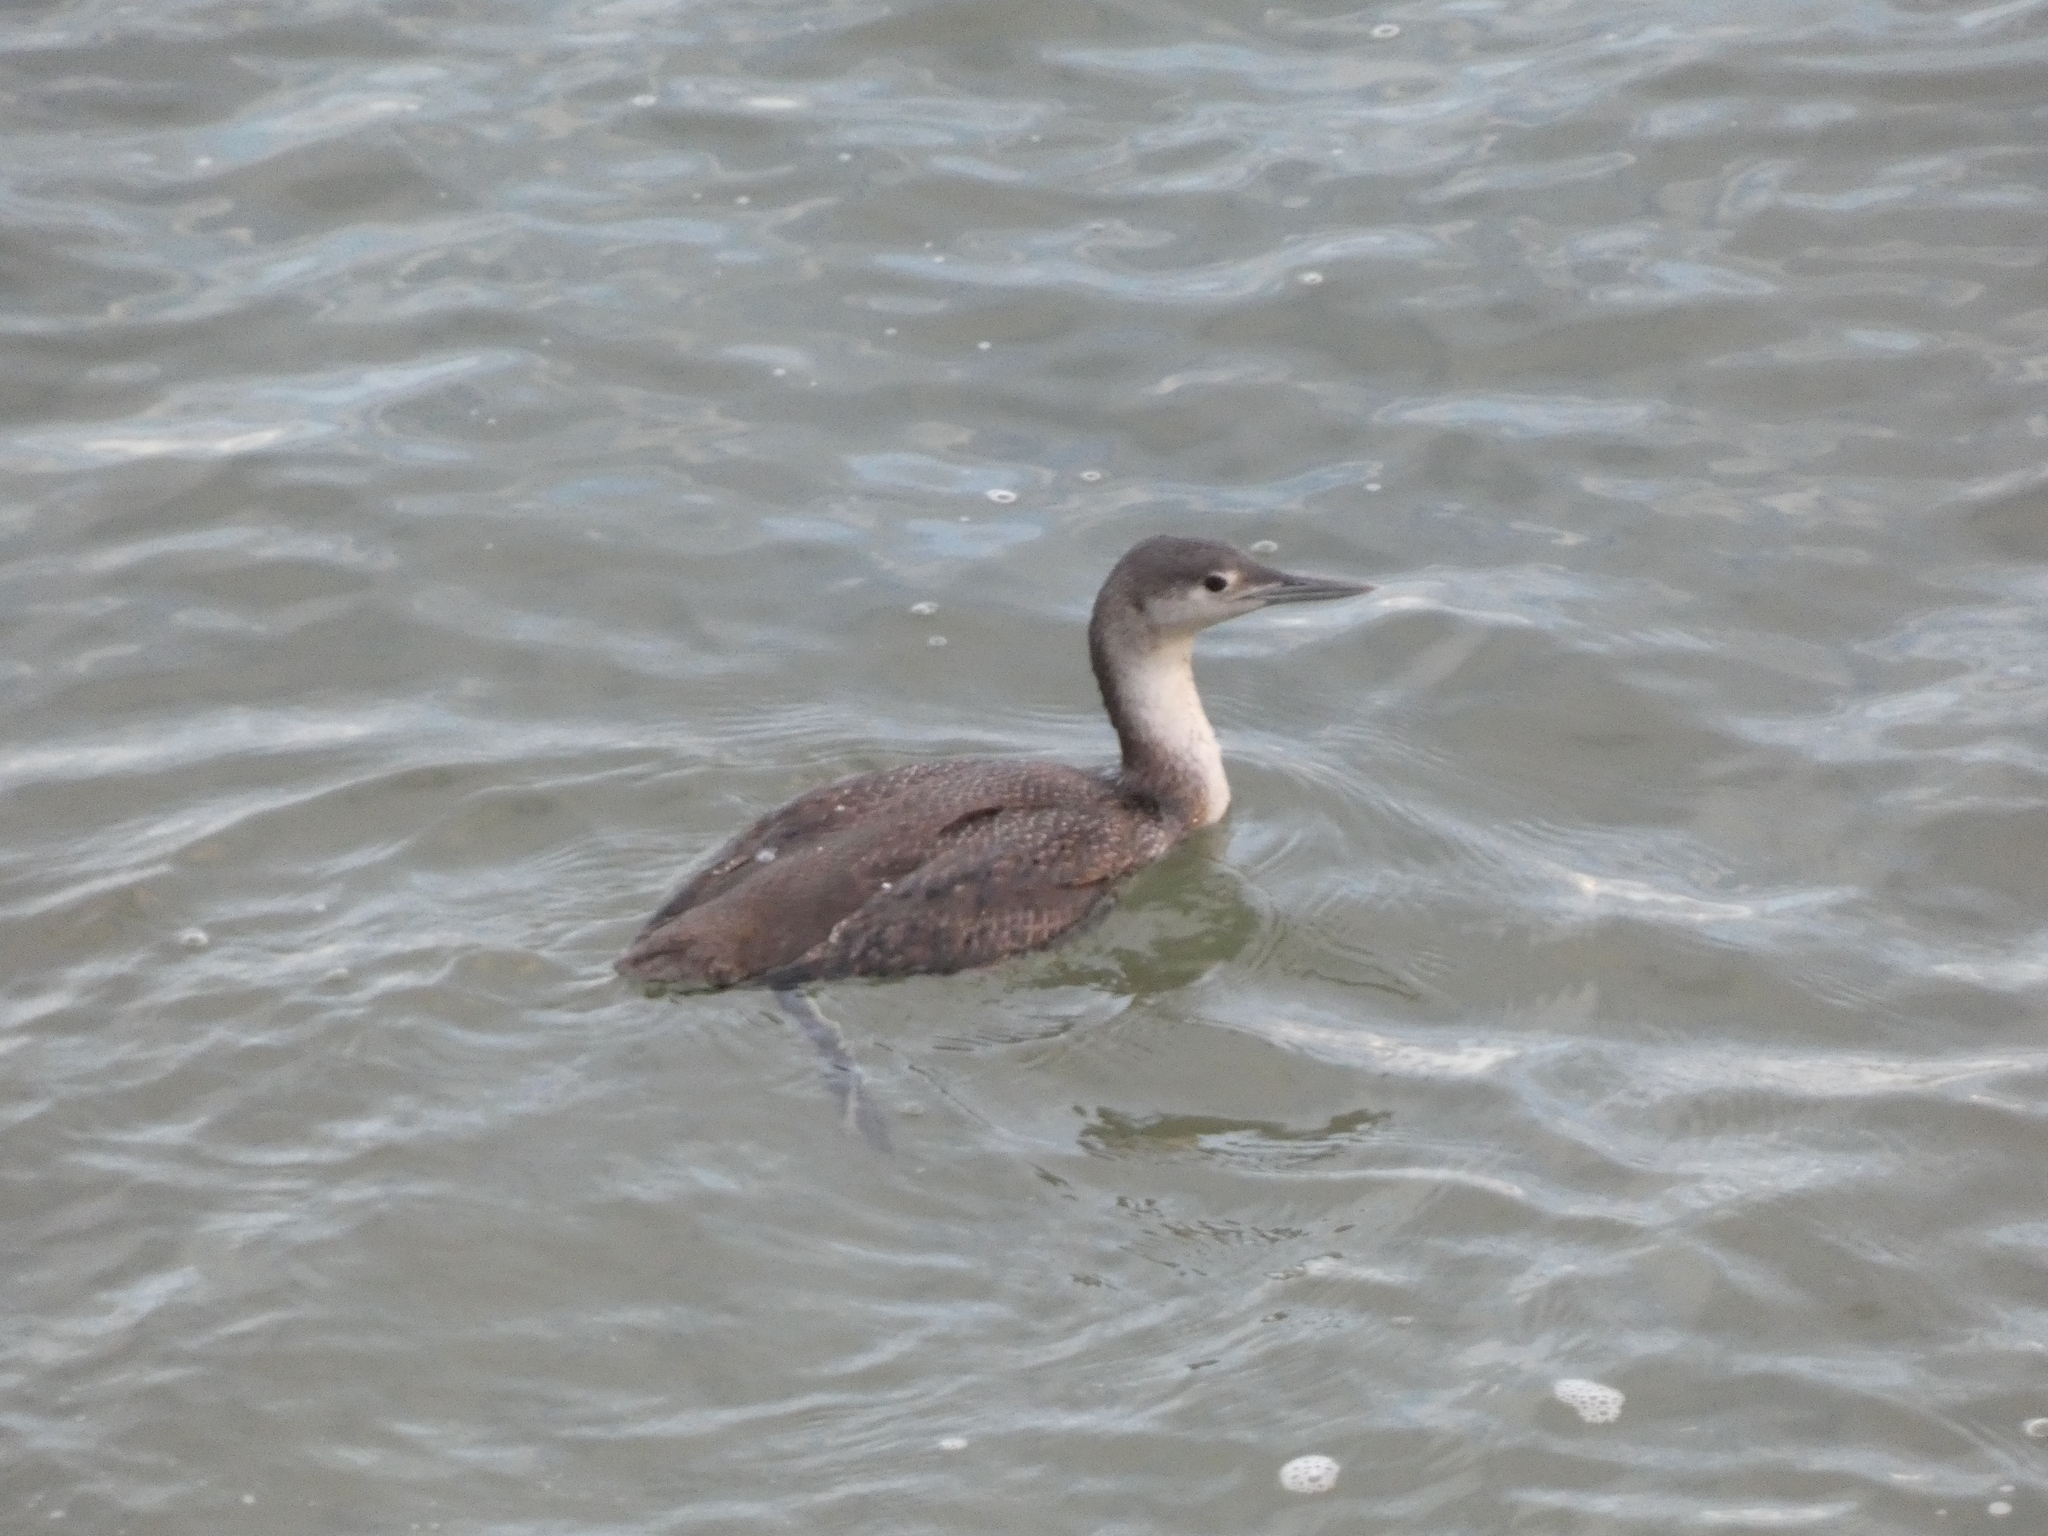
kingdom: Animalia
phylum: Chordata
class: Aves
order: Gaviiformes
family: Gaviidae
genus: Gavia
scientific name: Gavia stellata
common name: Red-throated loon
